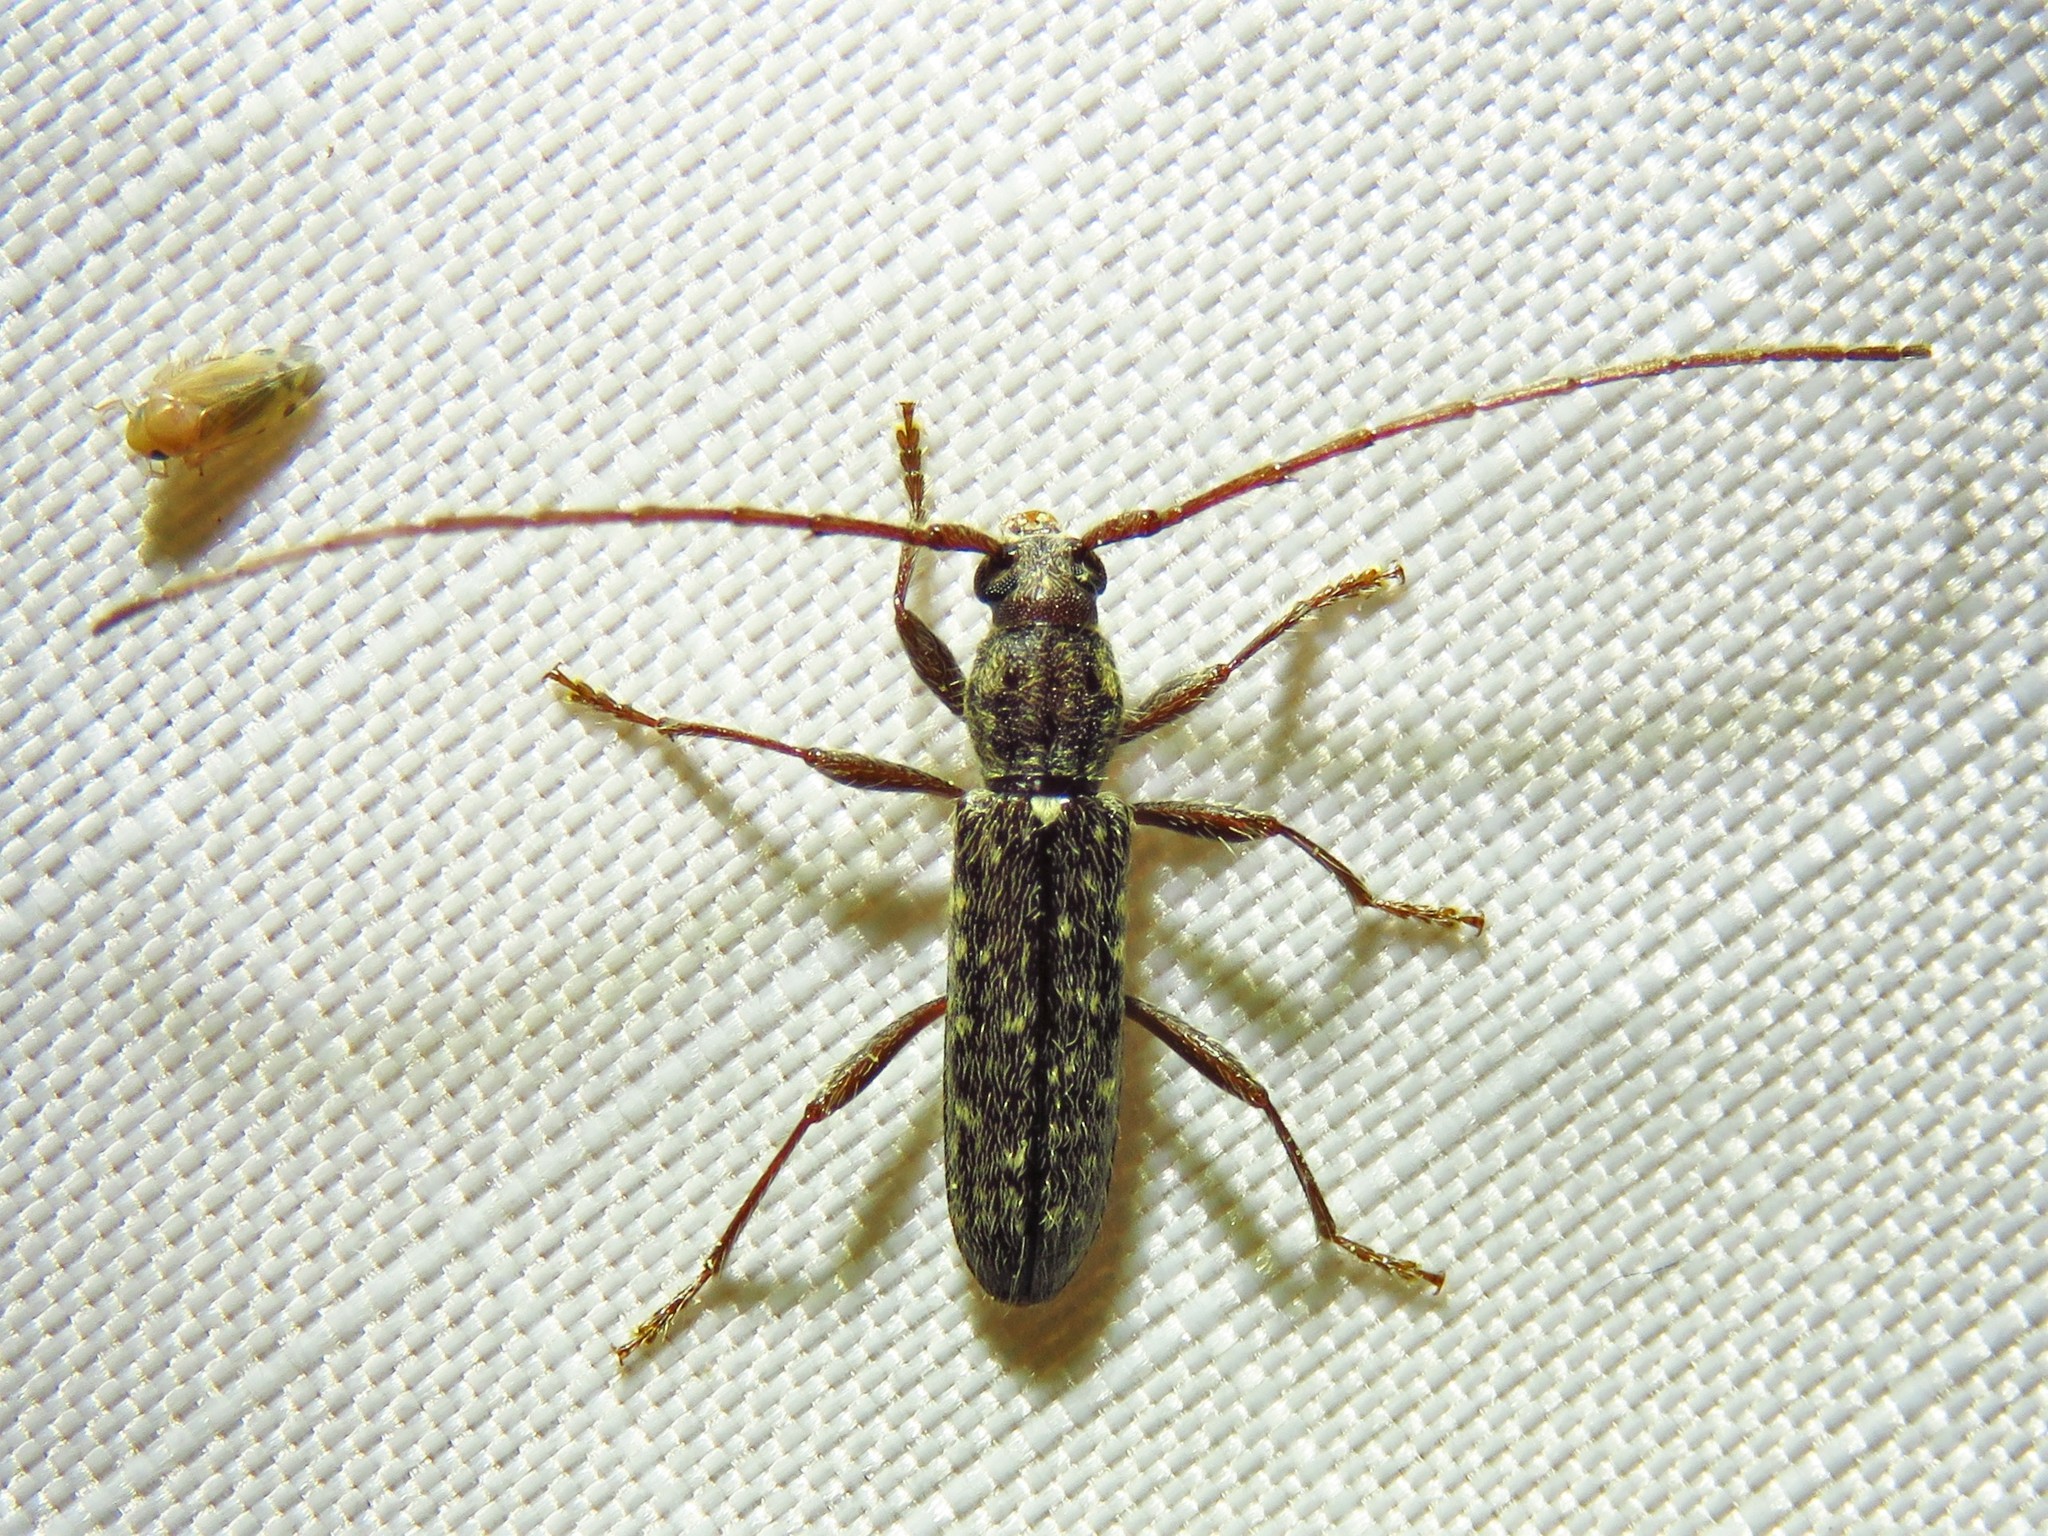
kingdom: Animalia
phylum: Arthropoda
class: Insecta
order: Coleoptera
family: Cerambycidae
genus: Anelaphus
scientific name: Anelaphus pumilus
